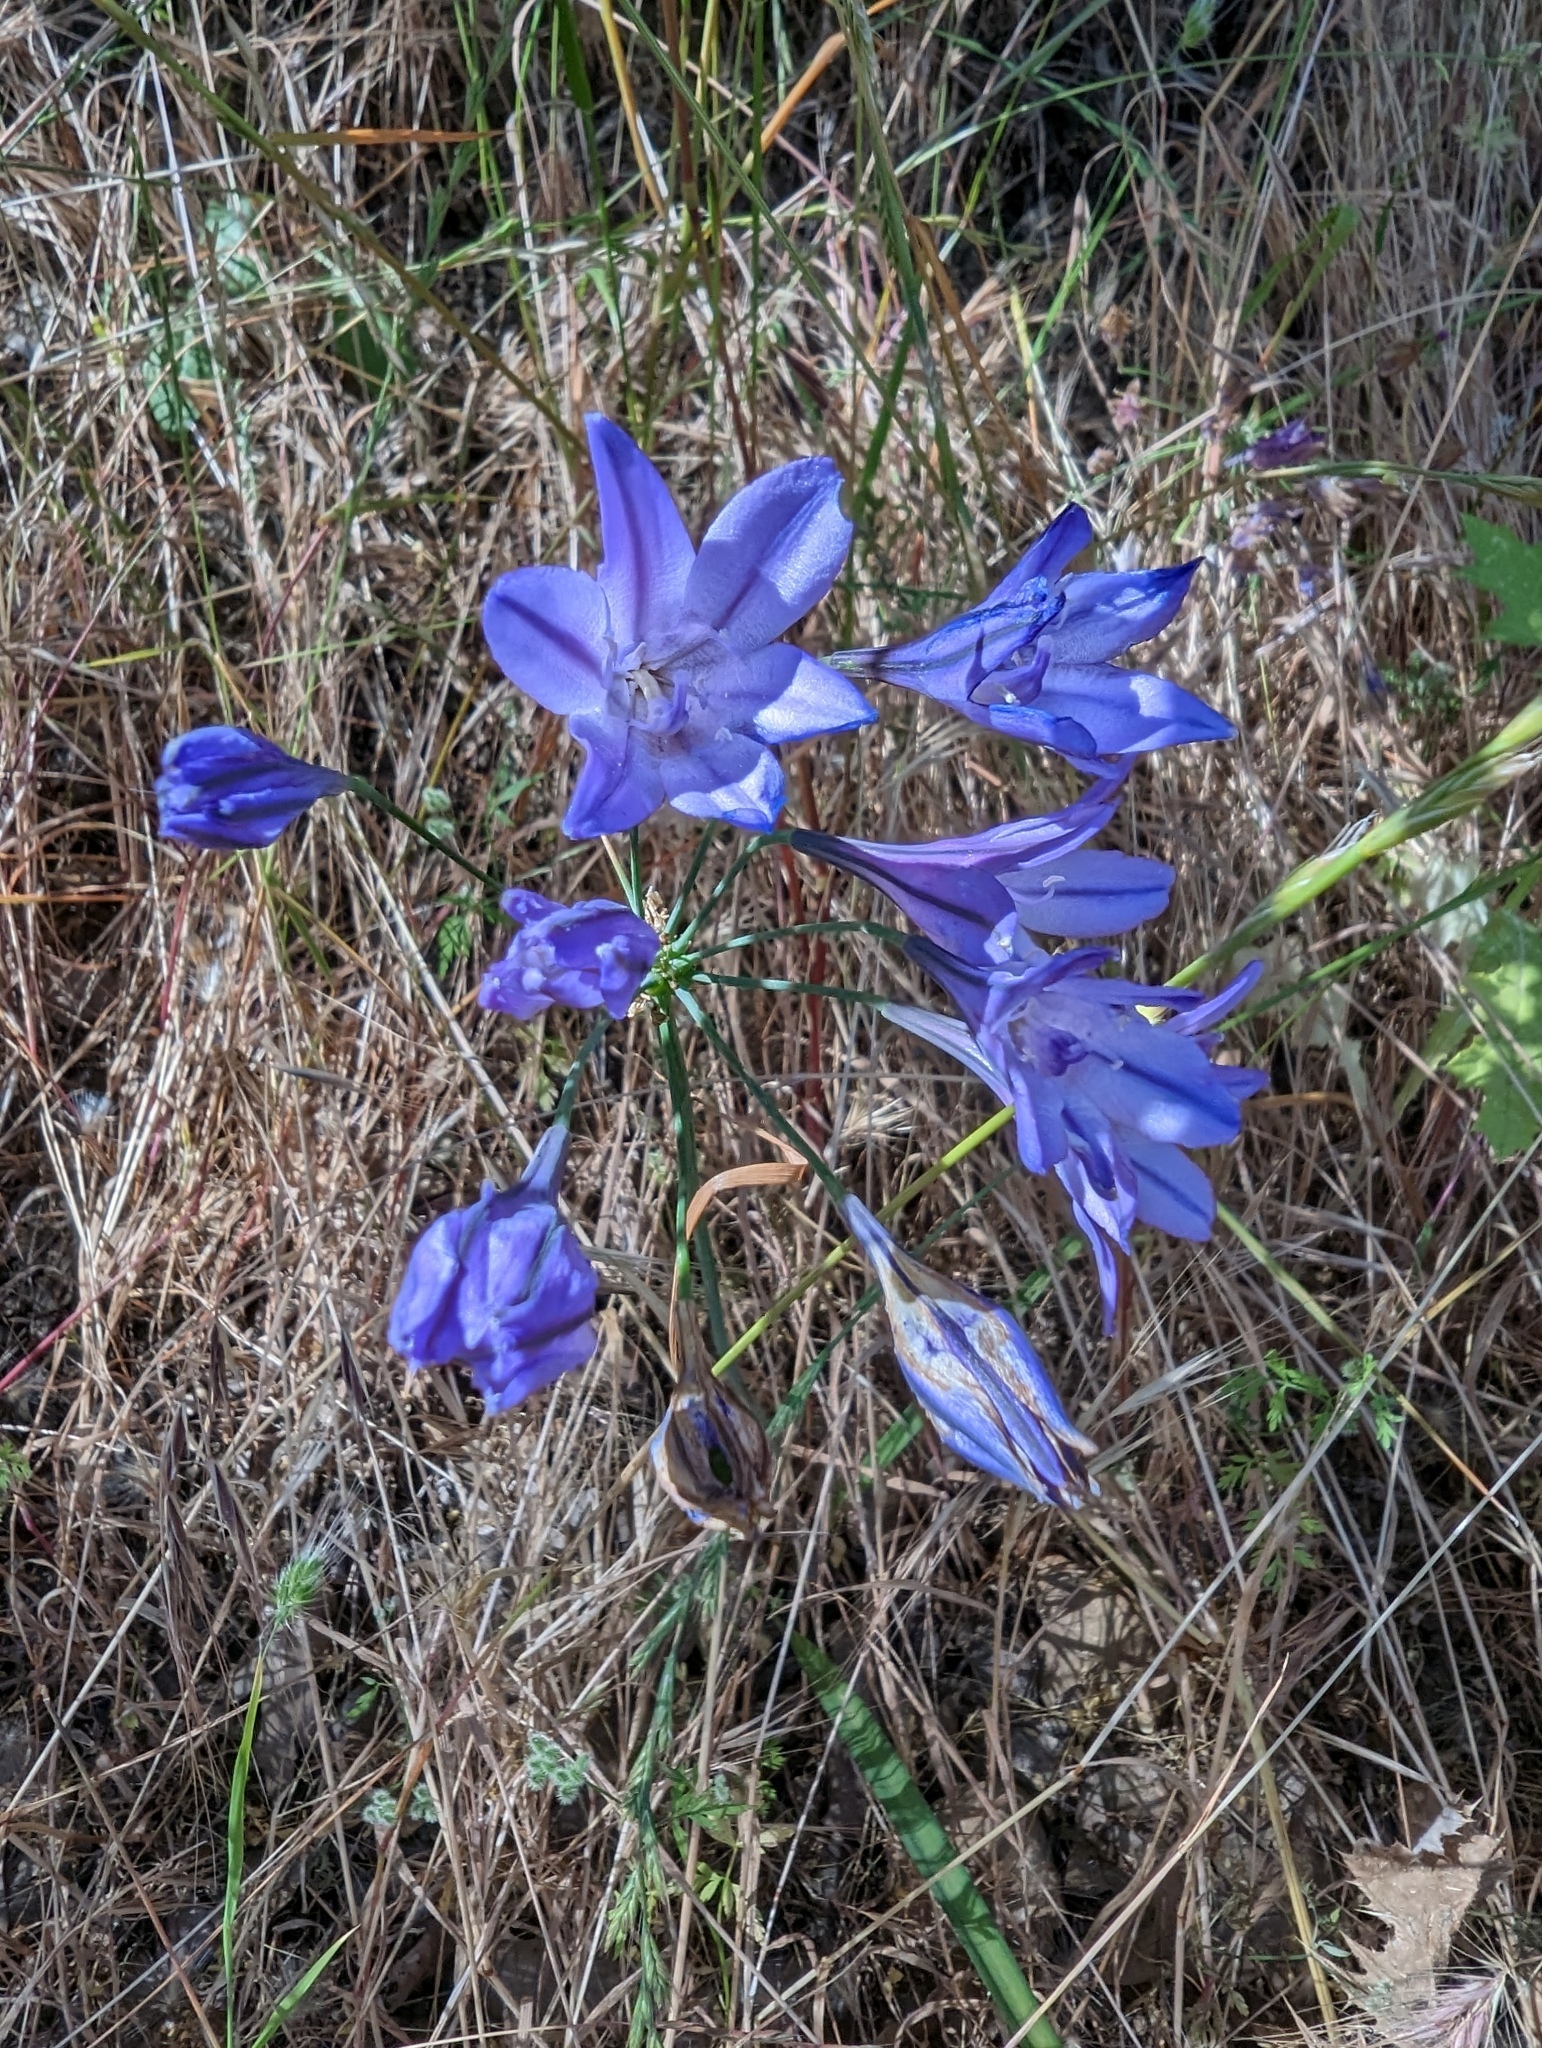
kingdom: Plantae
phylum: Tracheophyta
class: Liliopsida
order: Asparagales
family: Asparagaceae
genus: Triteleia
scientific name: Triteleia laxa
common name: Triplet-lily
